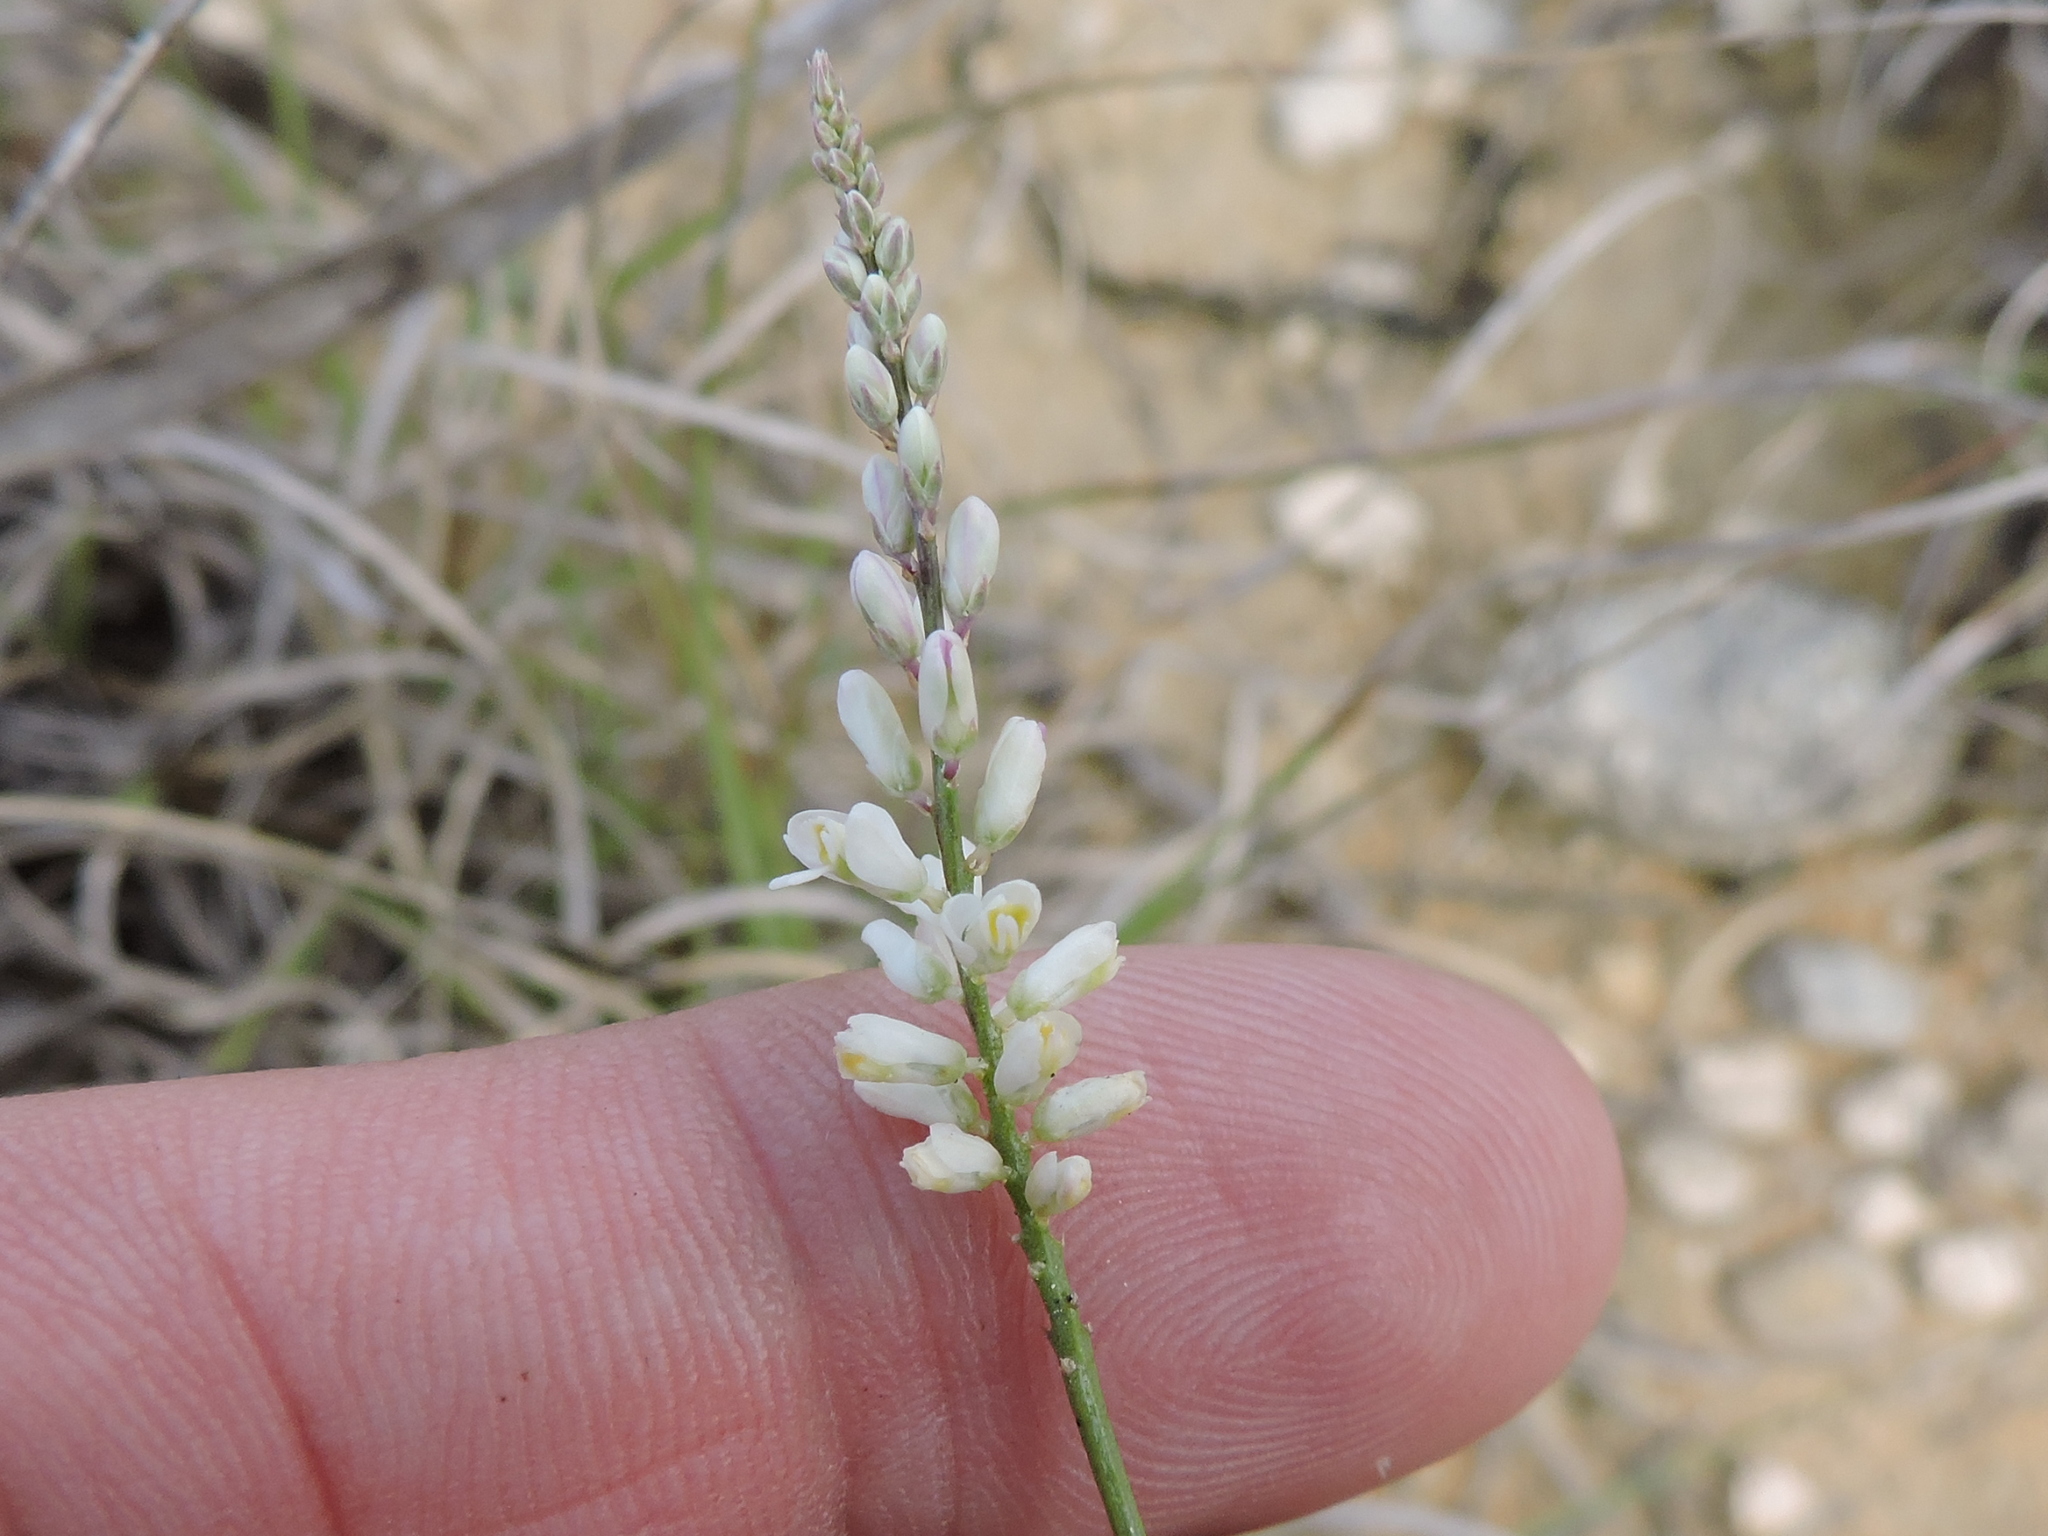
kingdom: Plantae
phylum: Tracheophyta
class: Magnoliopsida
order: Fabales
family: Polygalaceae
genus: Polygala
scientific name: Polygala alba
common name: White milkwort
